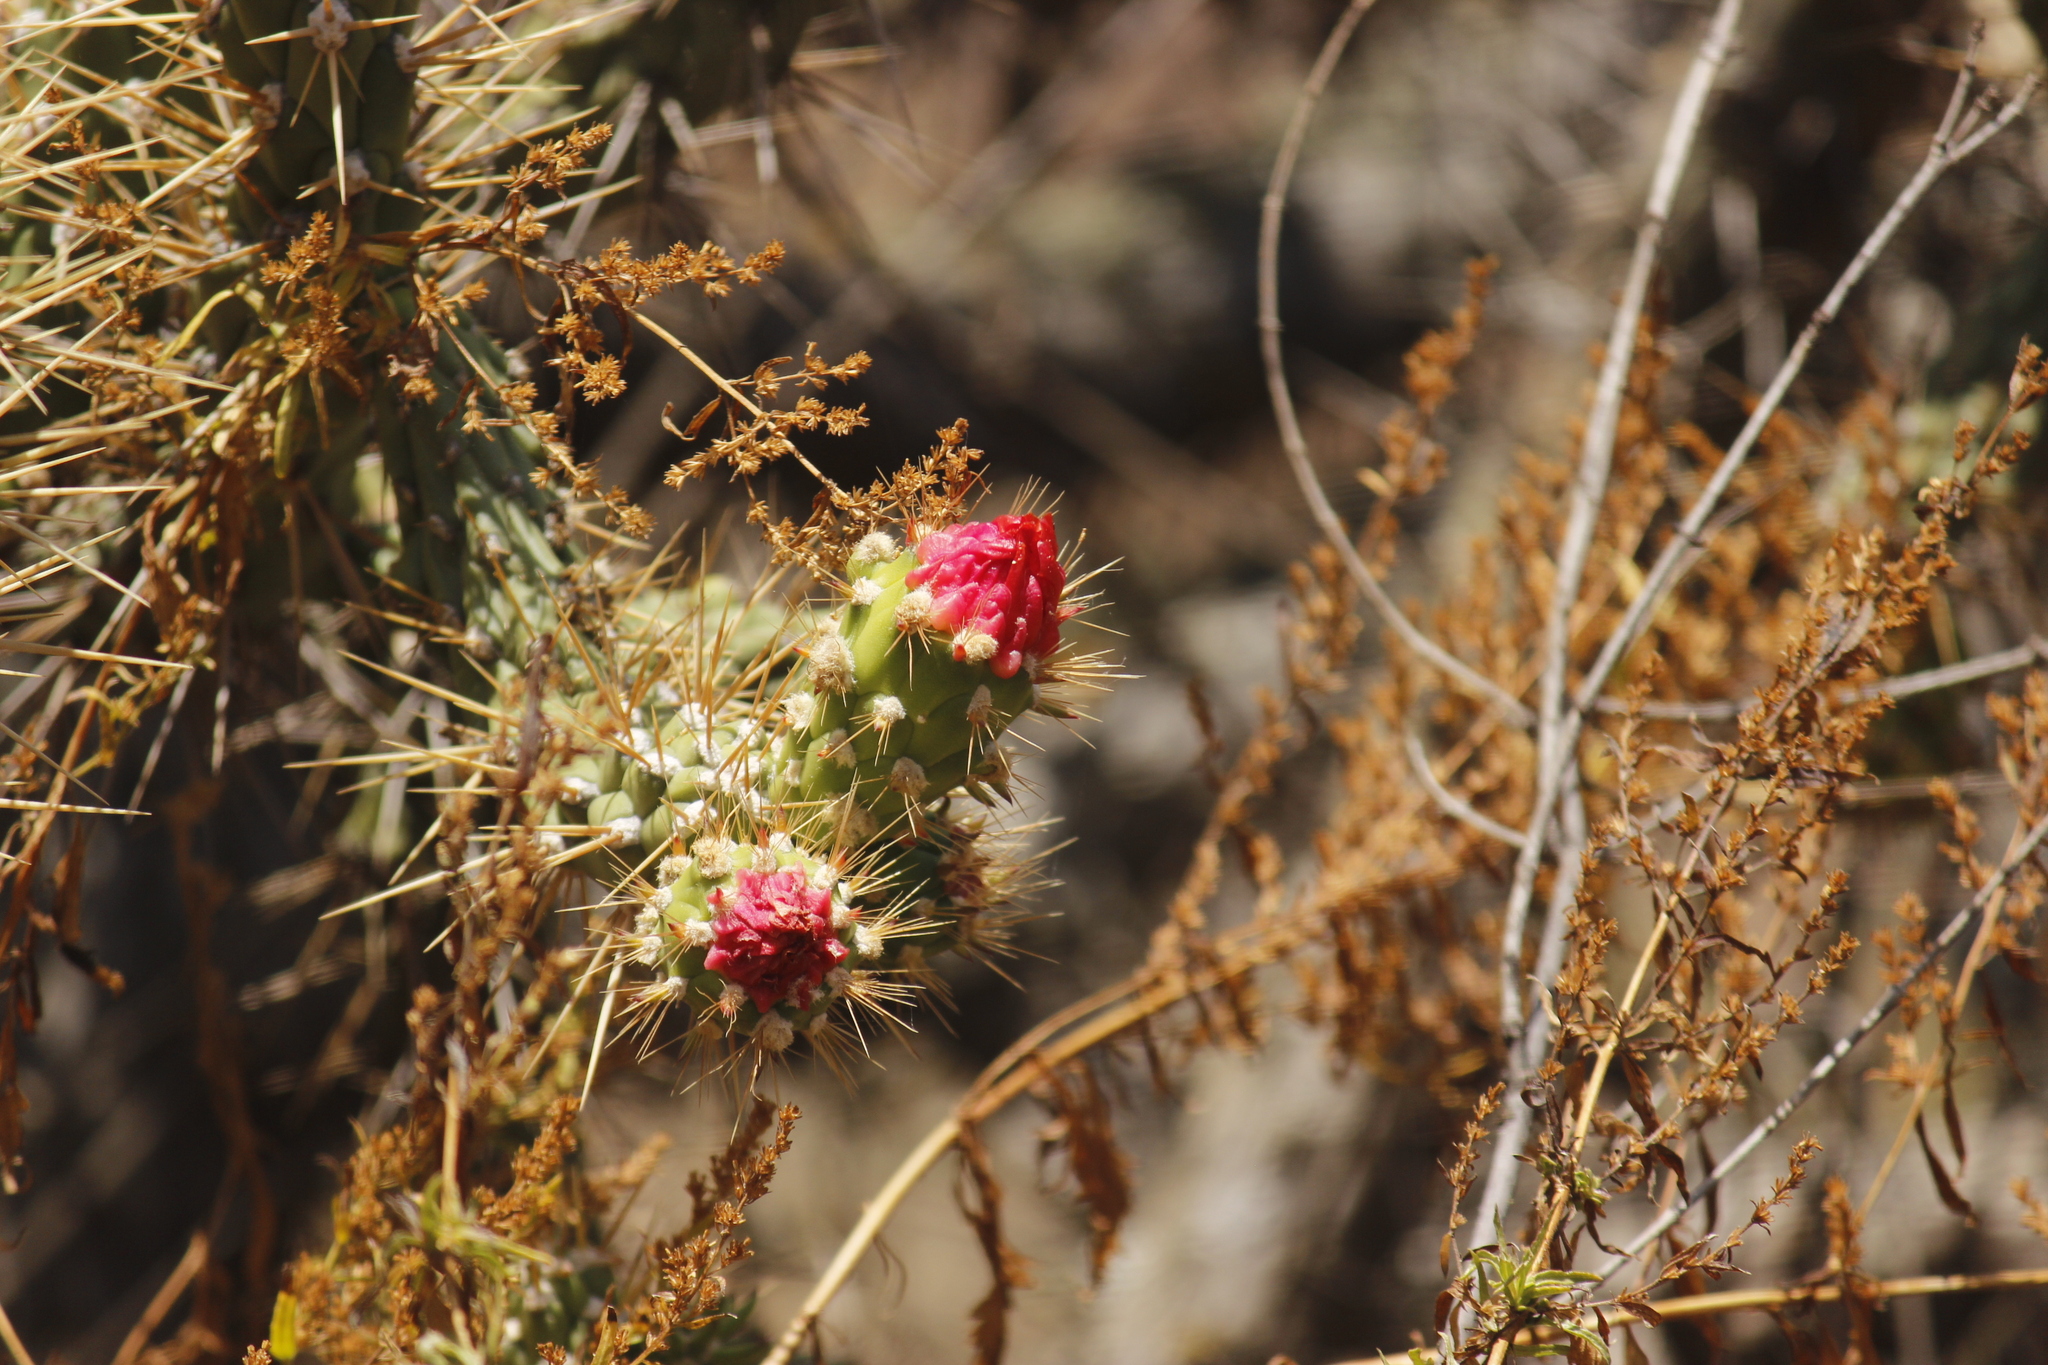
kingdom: Plantae
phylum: Tracheophyta
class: Magnoliopsida
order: Caryophyllales
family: Cactaceae
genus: Austrocylindropuntia
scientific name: Austrocylindropuntia subulata
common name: Eve's needle cactus
